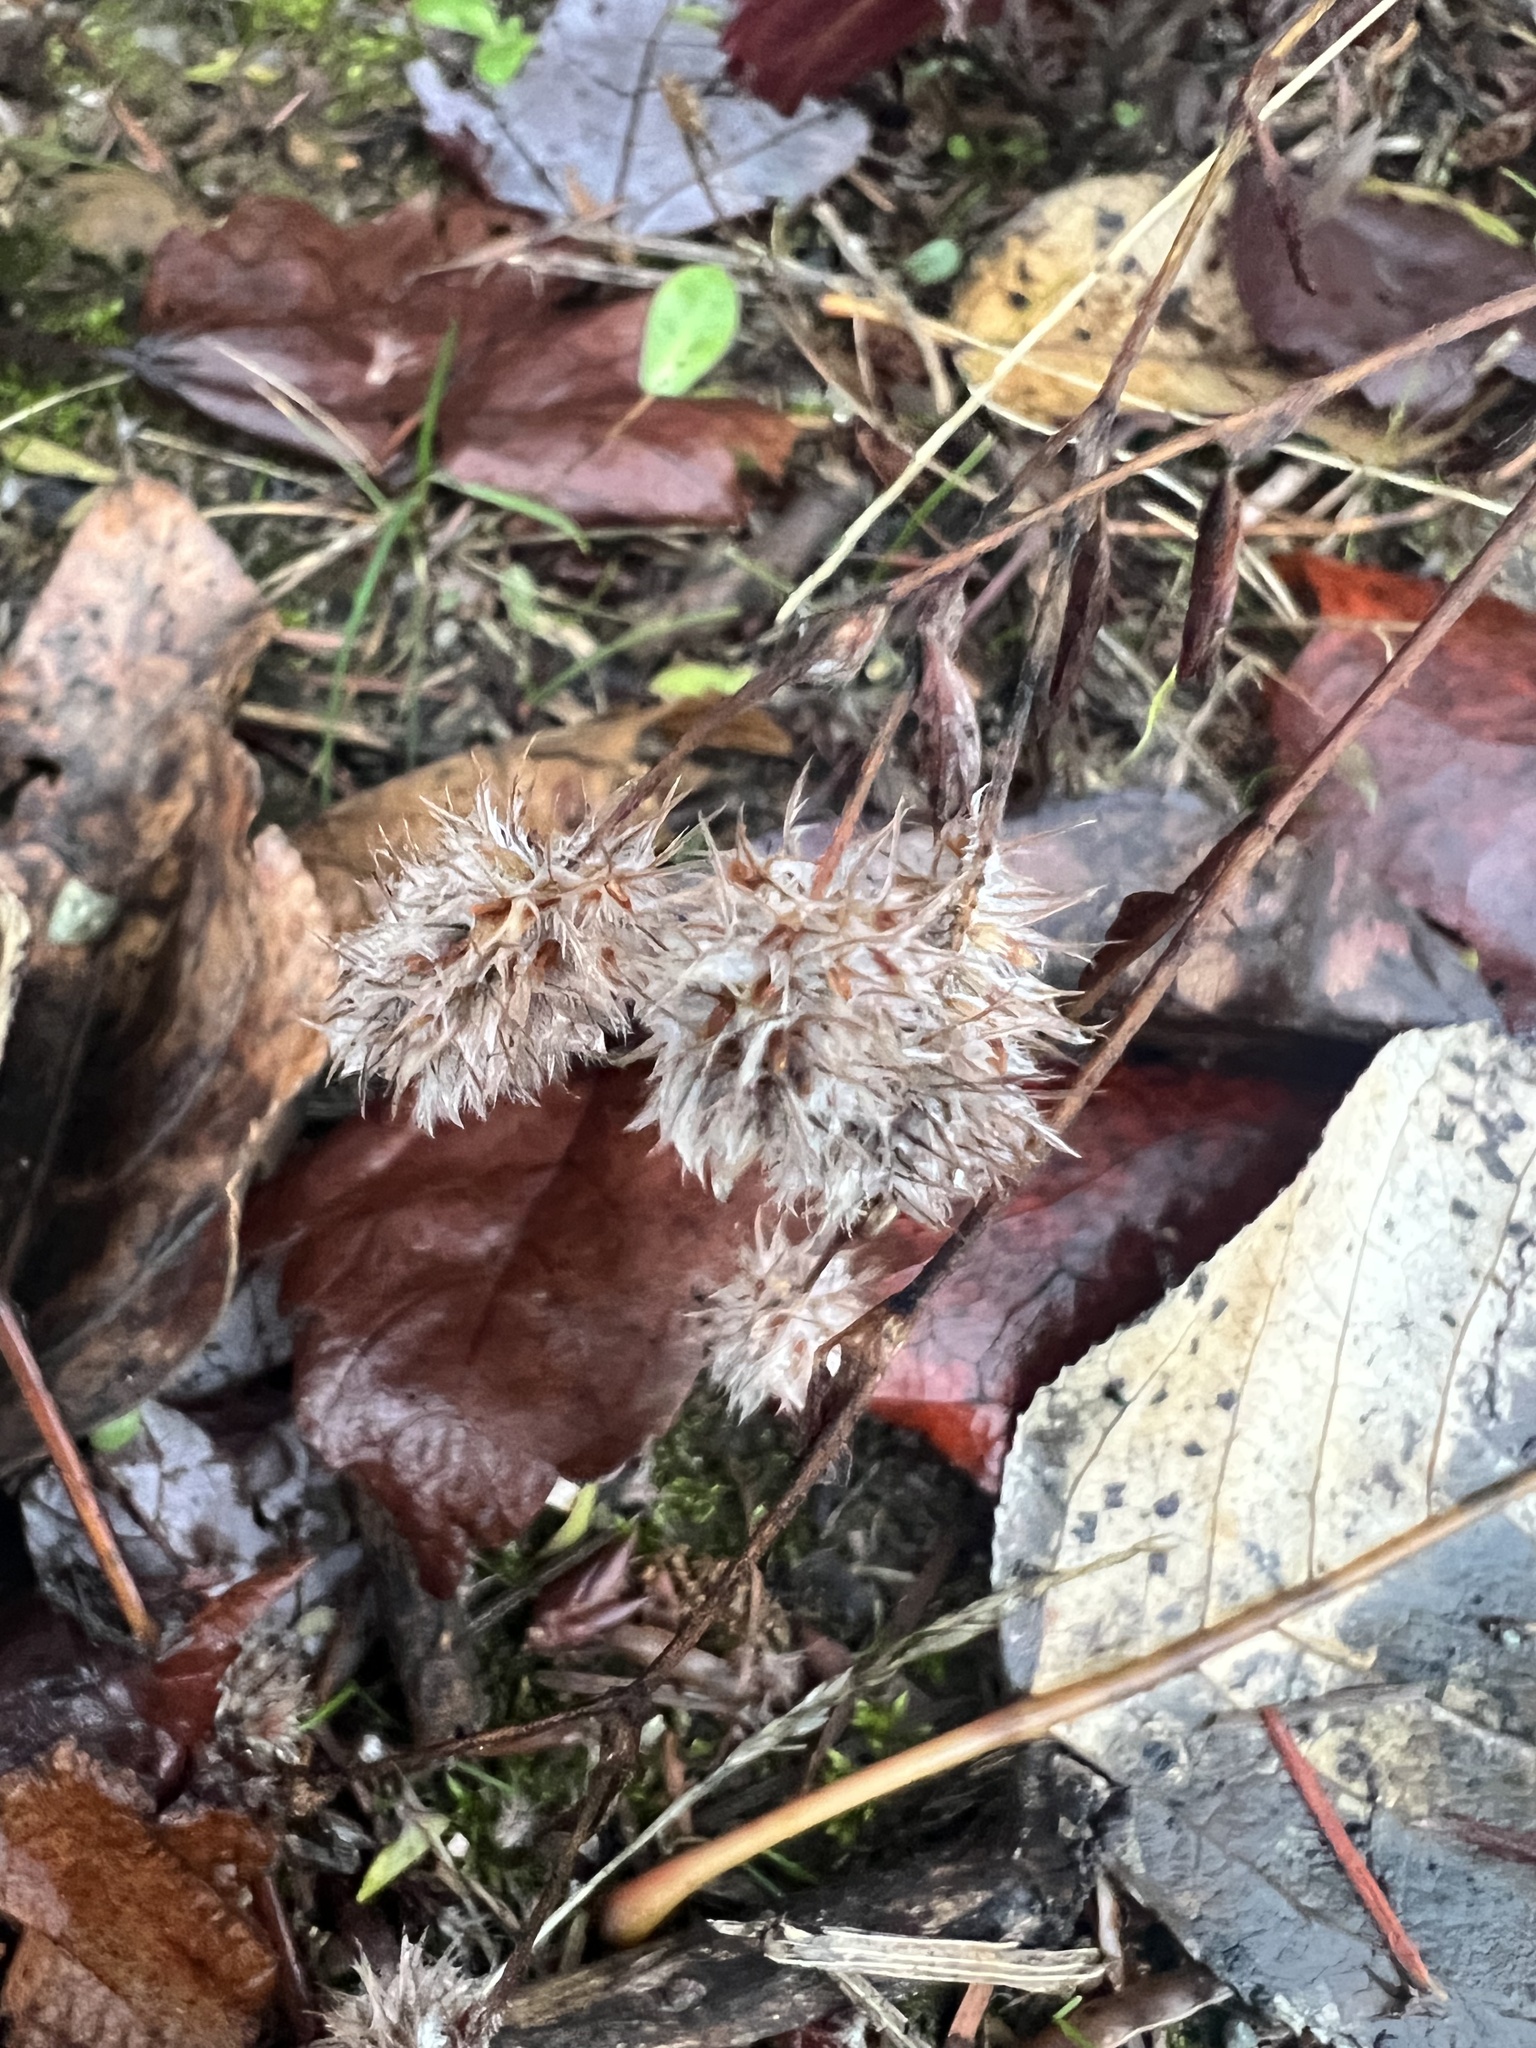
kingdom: Plantae
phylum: Tracheophyta
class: Magnoliopsida
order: Fabales
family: Fabaceae
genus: Trifolium
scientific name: Trifolium arvense
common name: Hare's-foot clover
